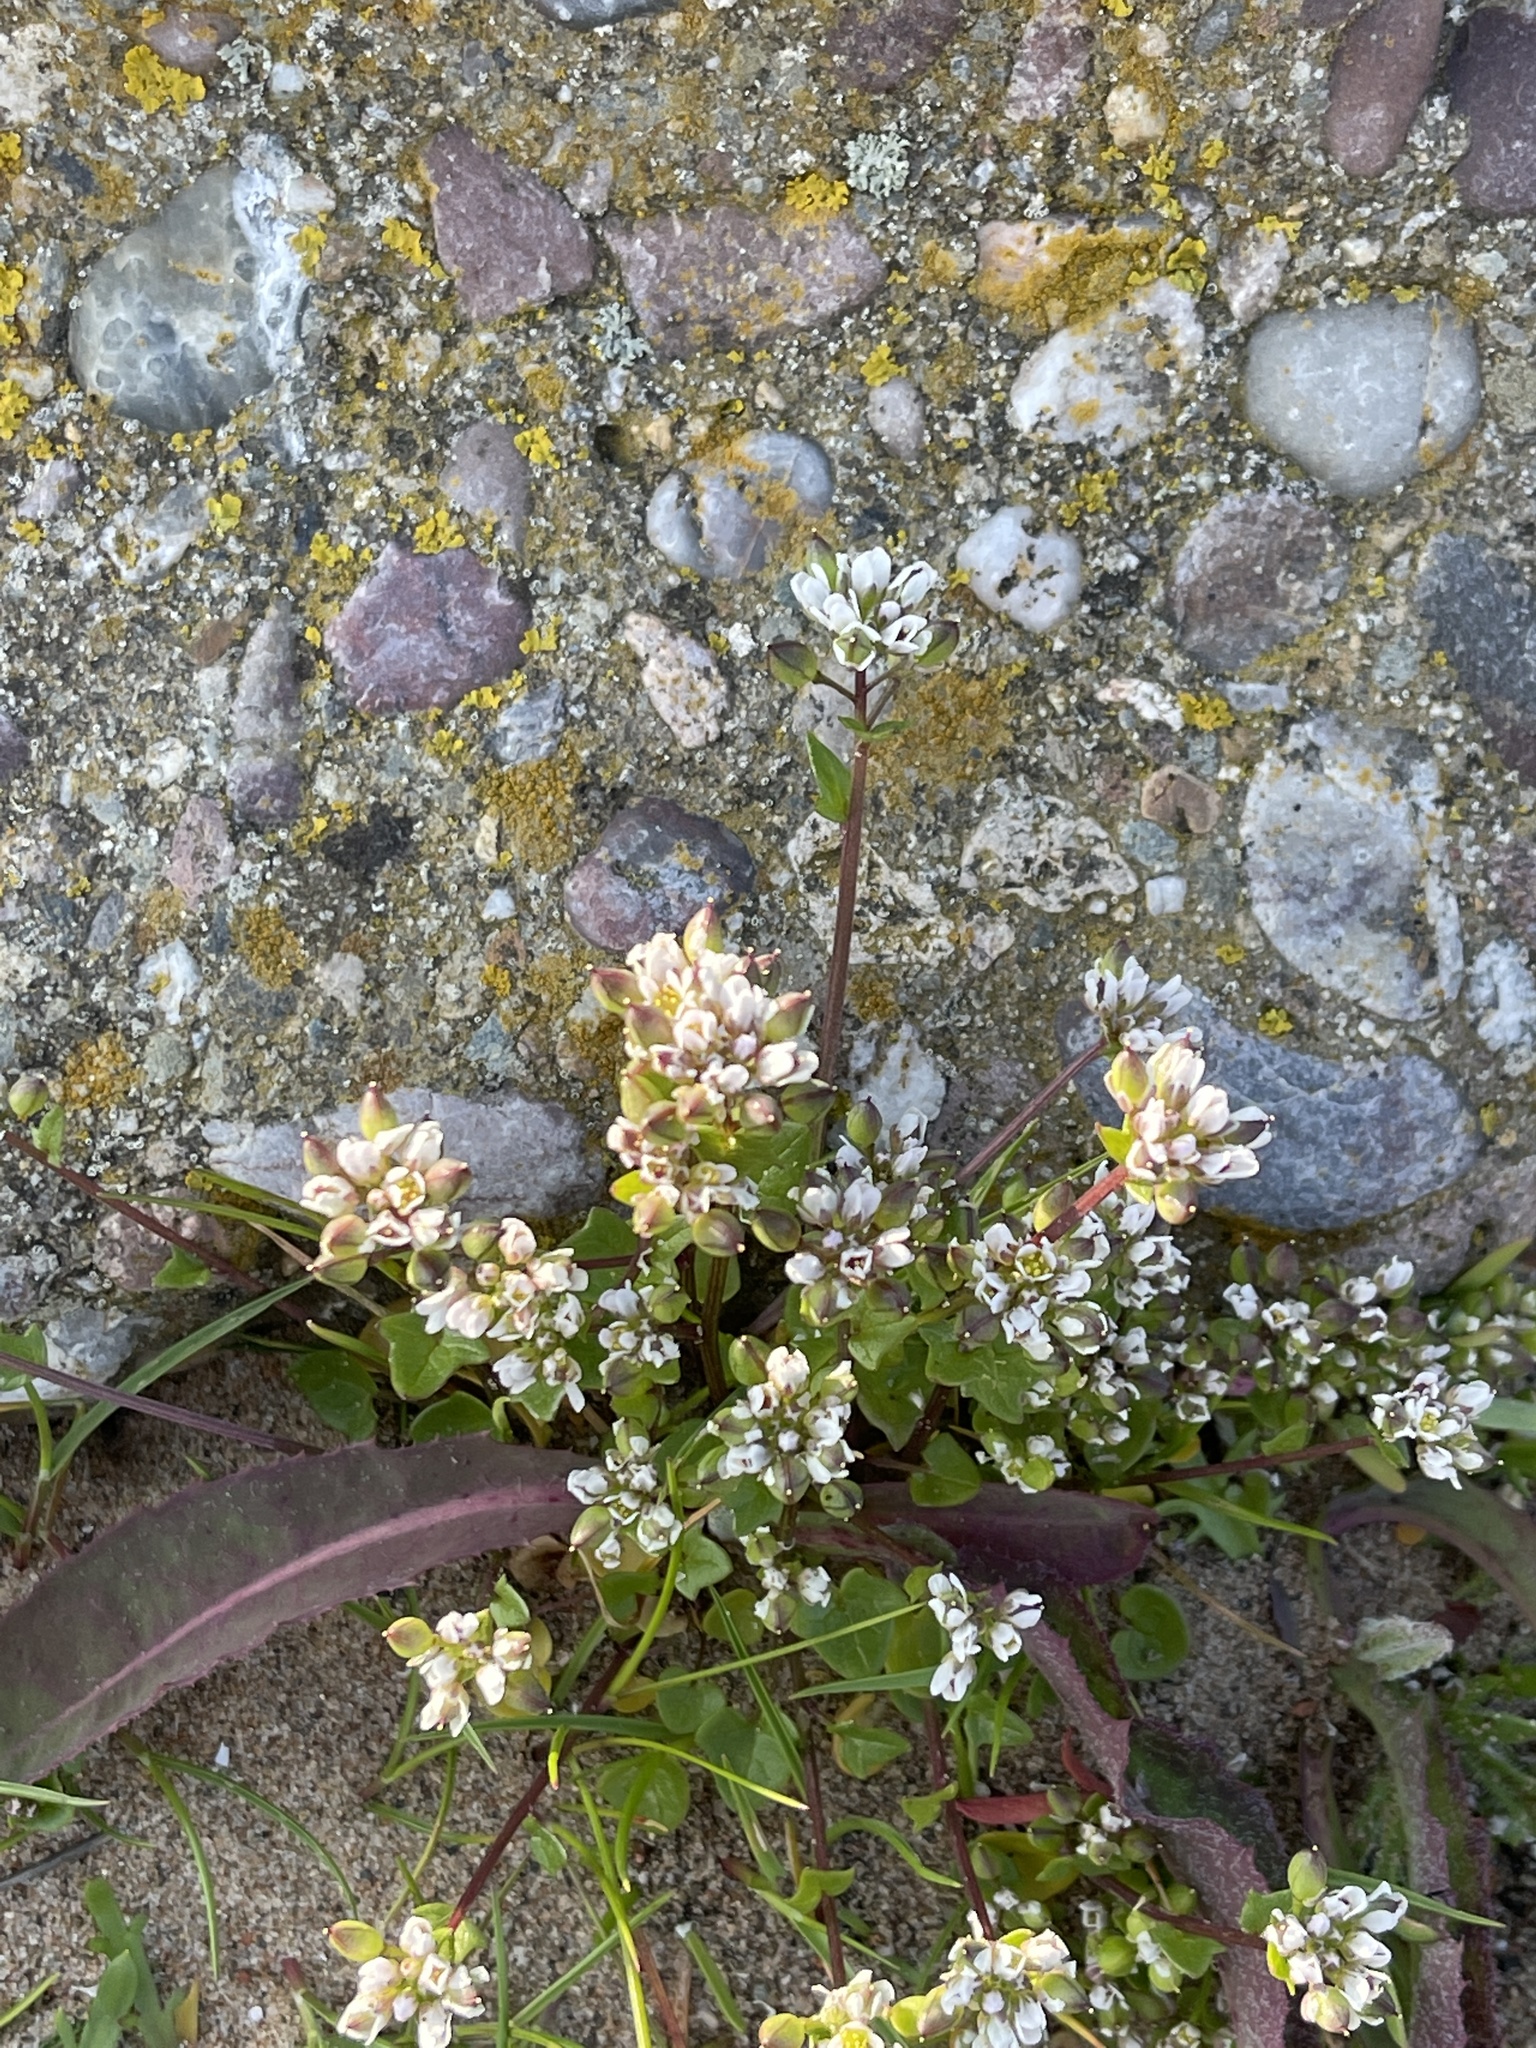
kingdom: Plantae
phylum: Tracheophyta
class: Magnoliopsida
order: Brassicales
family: Brassicaceae
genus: Cochlearia
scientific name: Cochlearia danica
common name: Early scurvygrass
